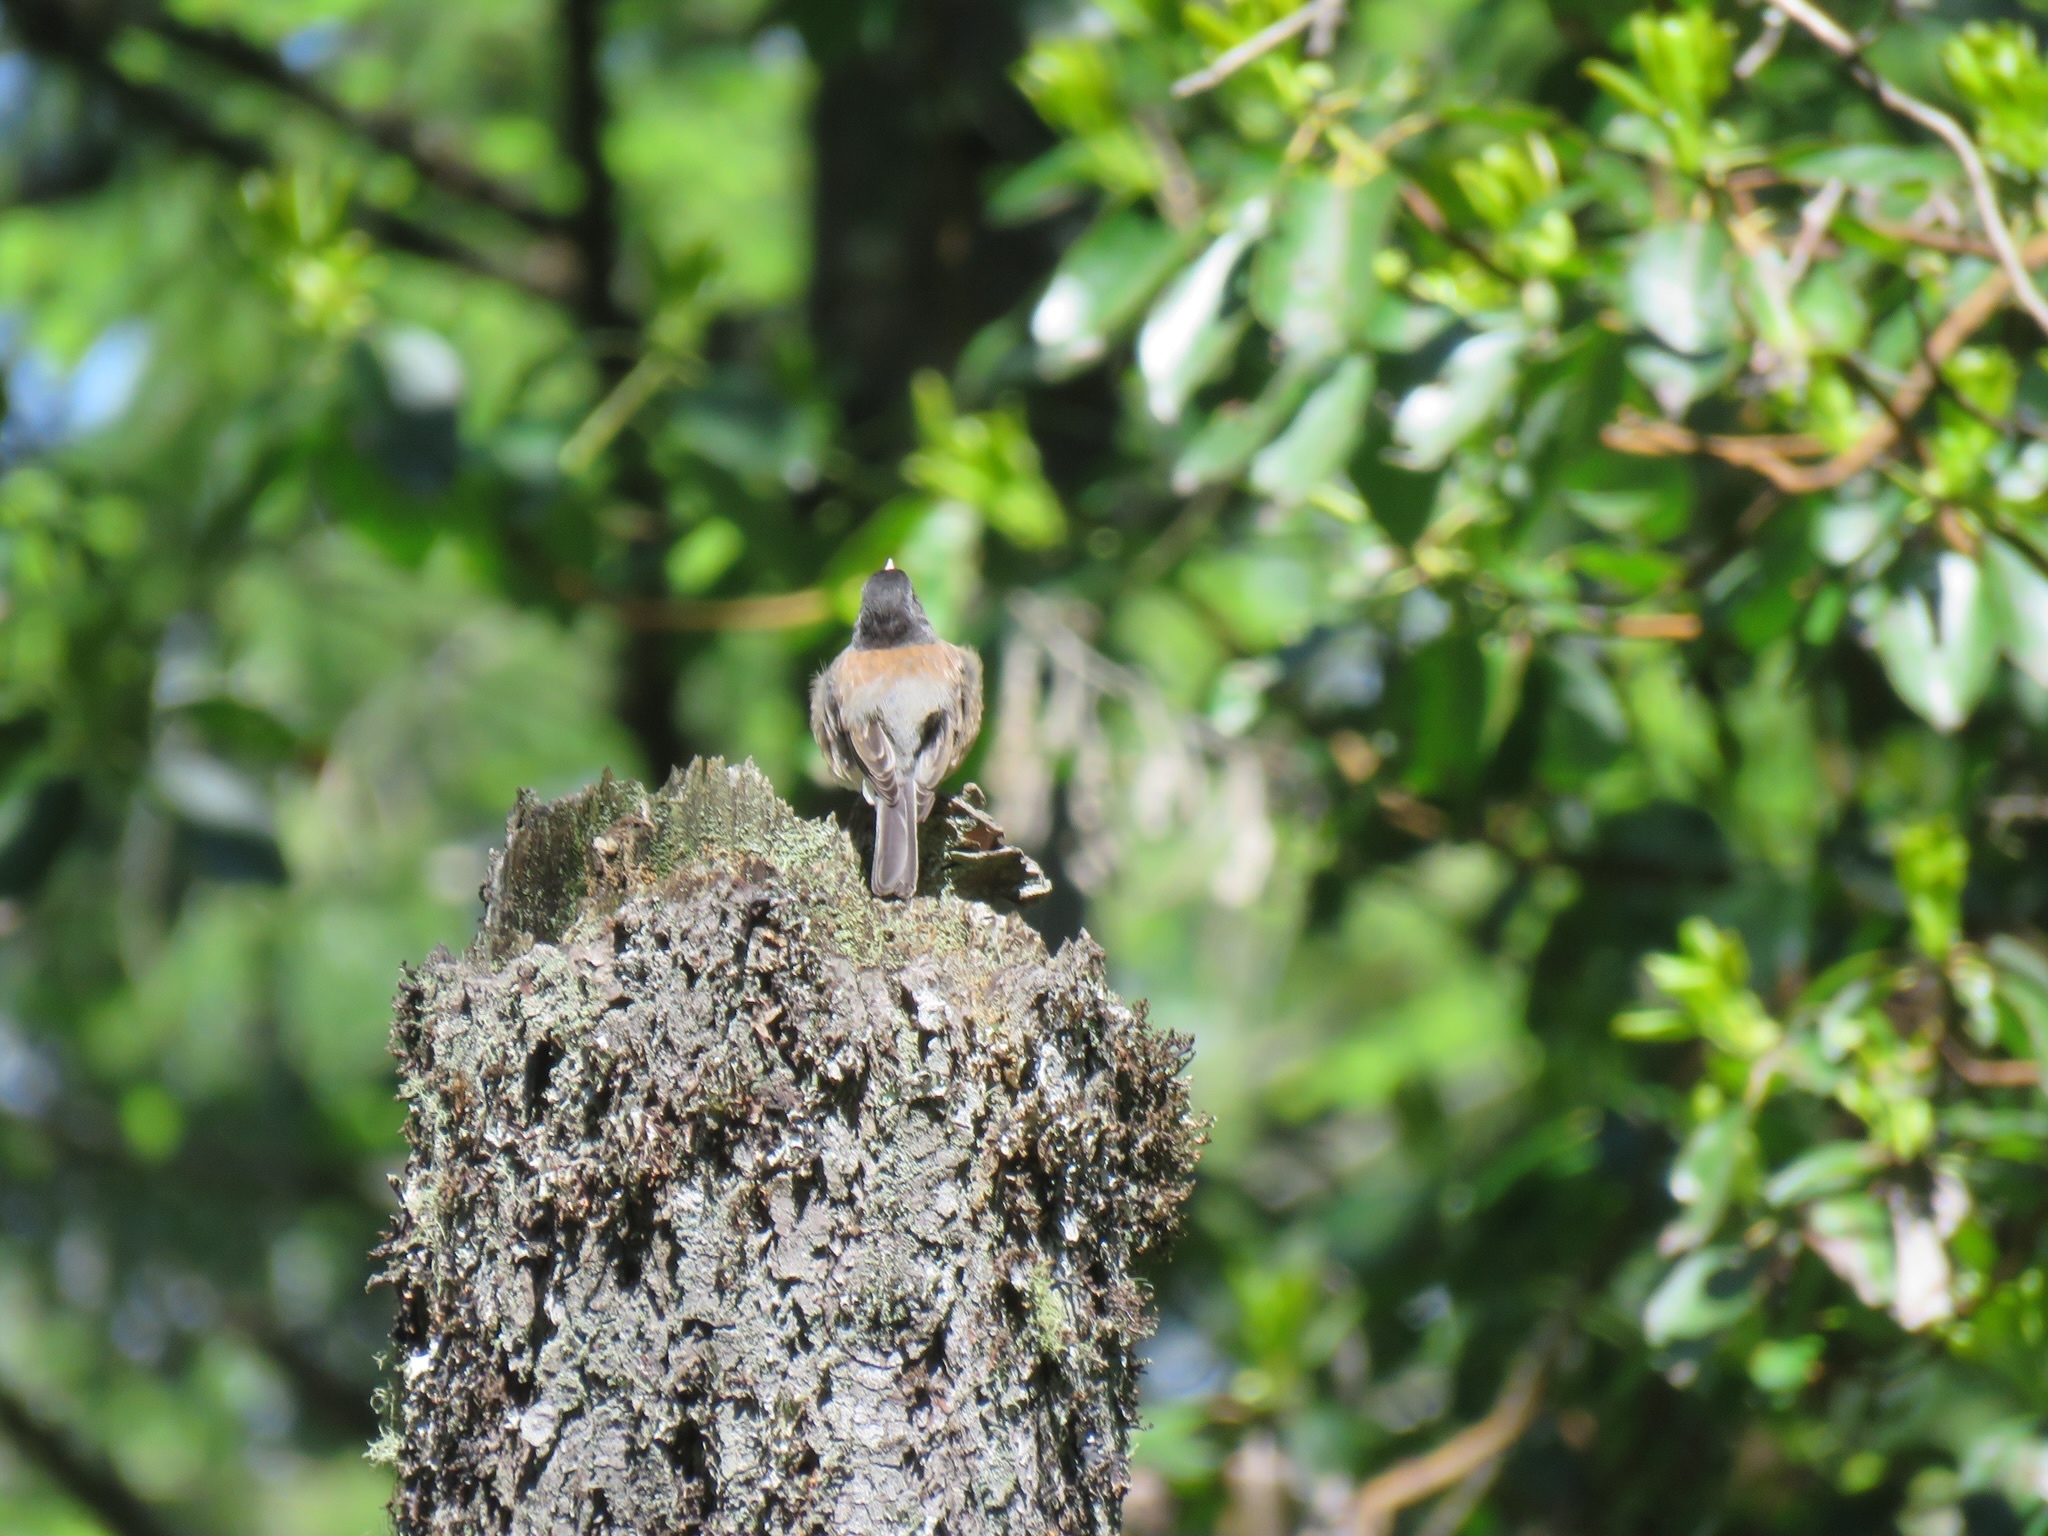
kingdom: Animalia
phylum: Chordata
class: Aves
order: Passeriformes
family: Passerellidae
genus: Junco
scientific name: Junco hyemalis
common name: Dark-eyed junco
